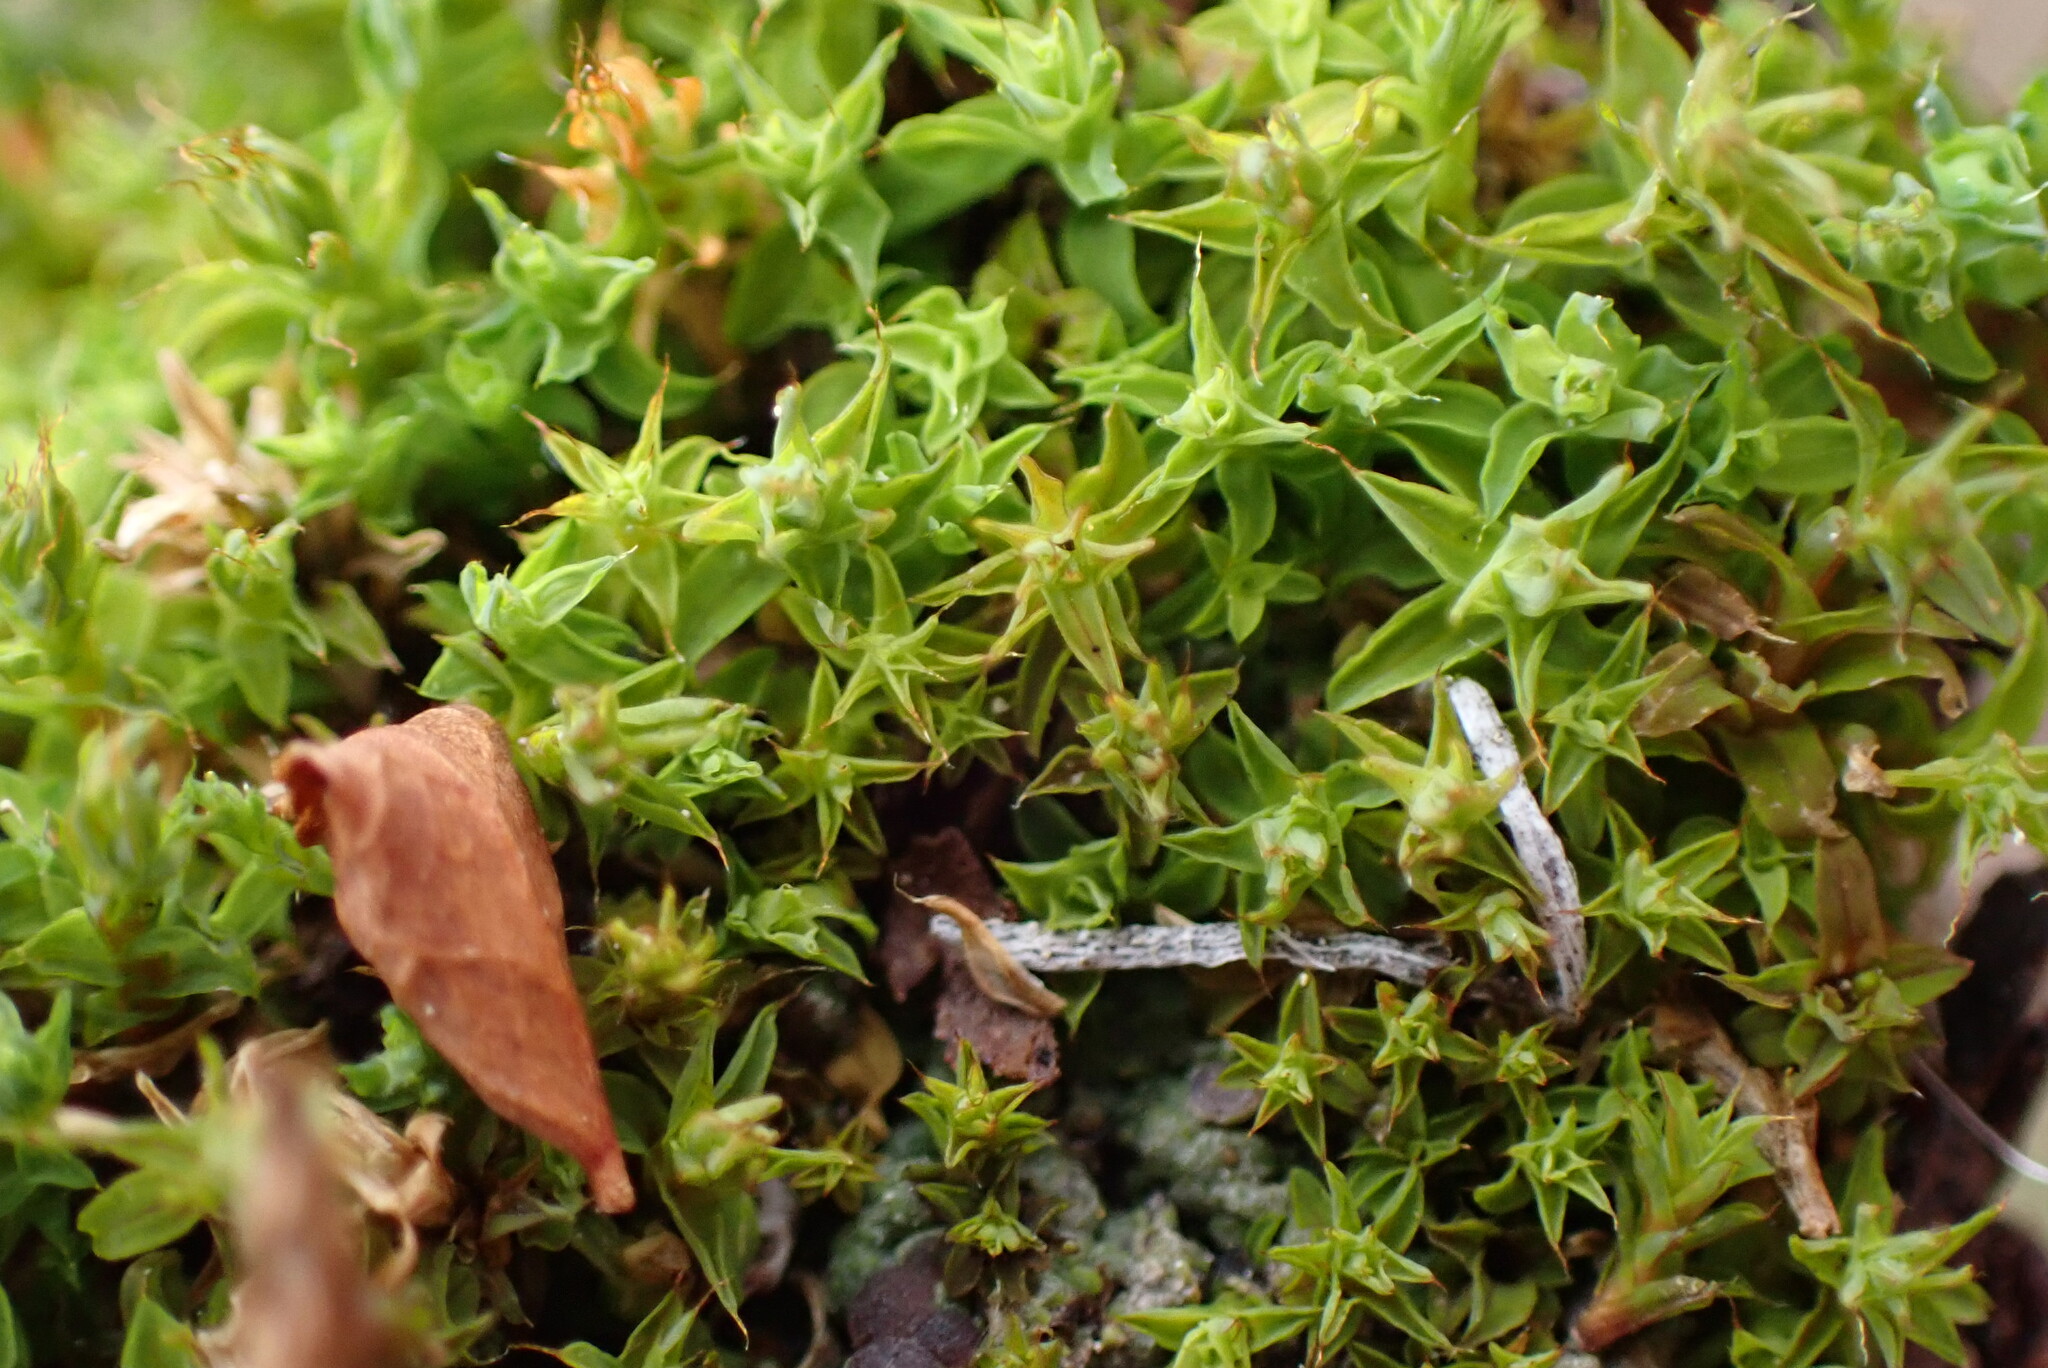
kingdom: Plantae
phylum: Bryophyta
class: Bryopsida
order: Pottiales
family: Pottiaceae
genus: Syntrichia
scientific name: Syntrichia norvegica
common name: Norway screw moss
